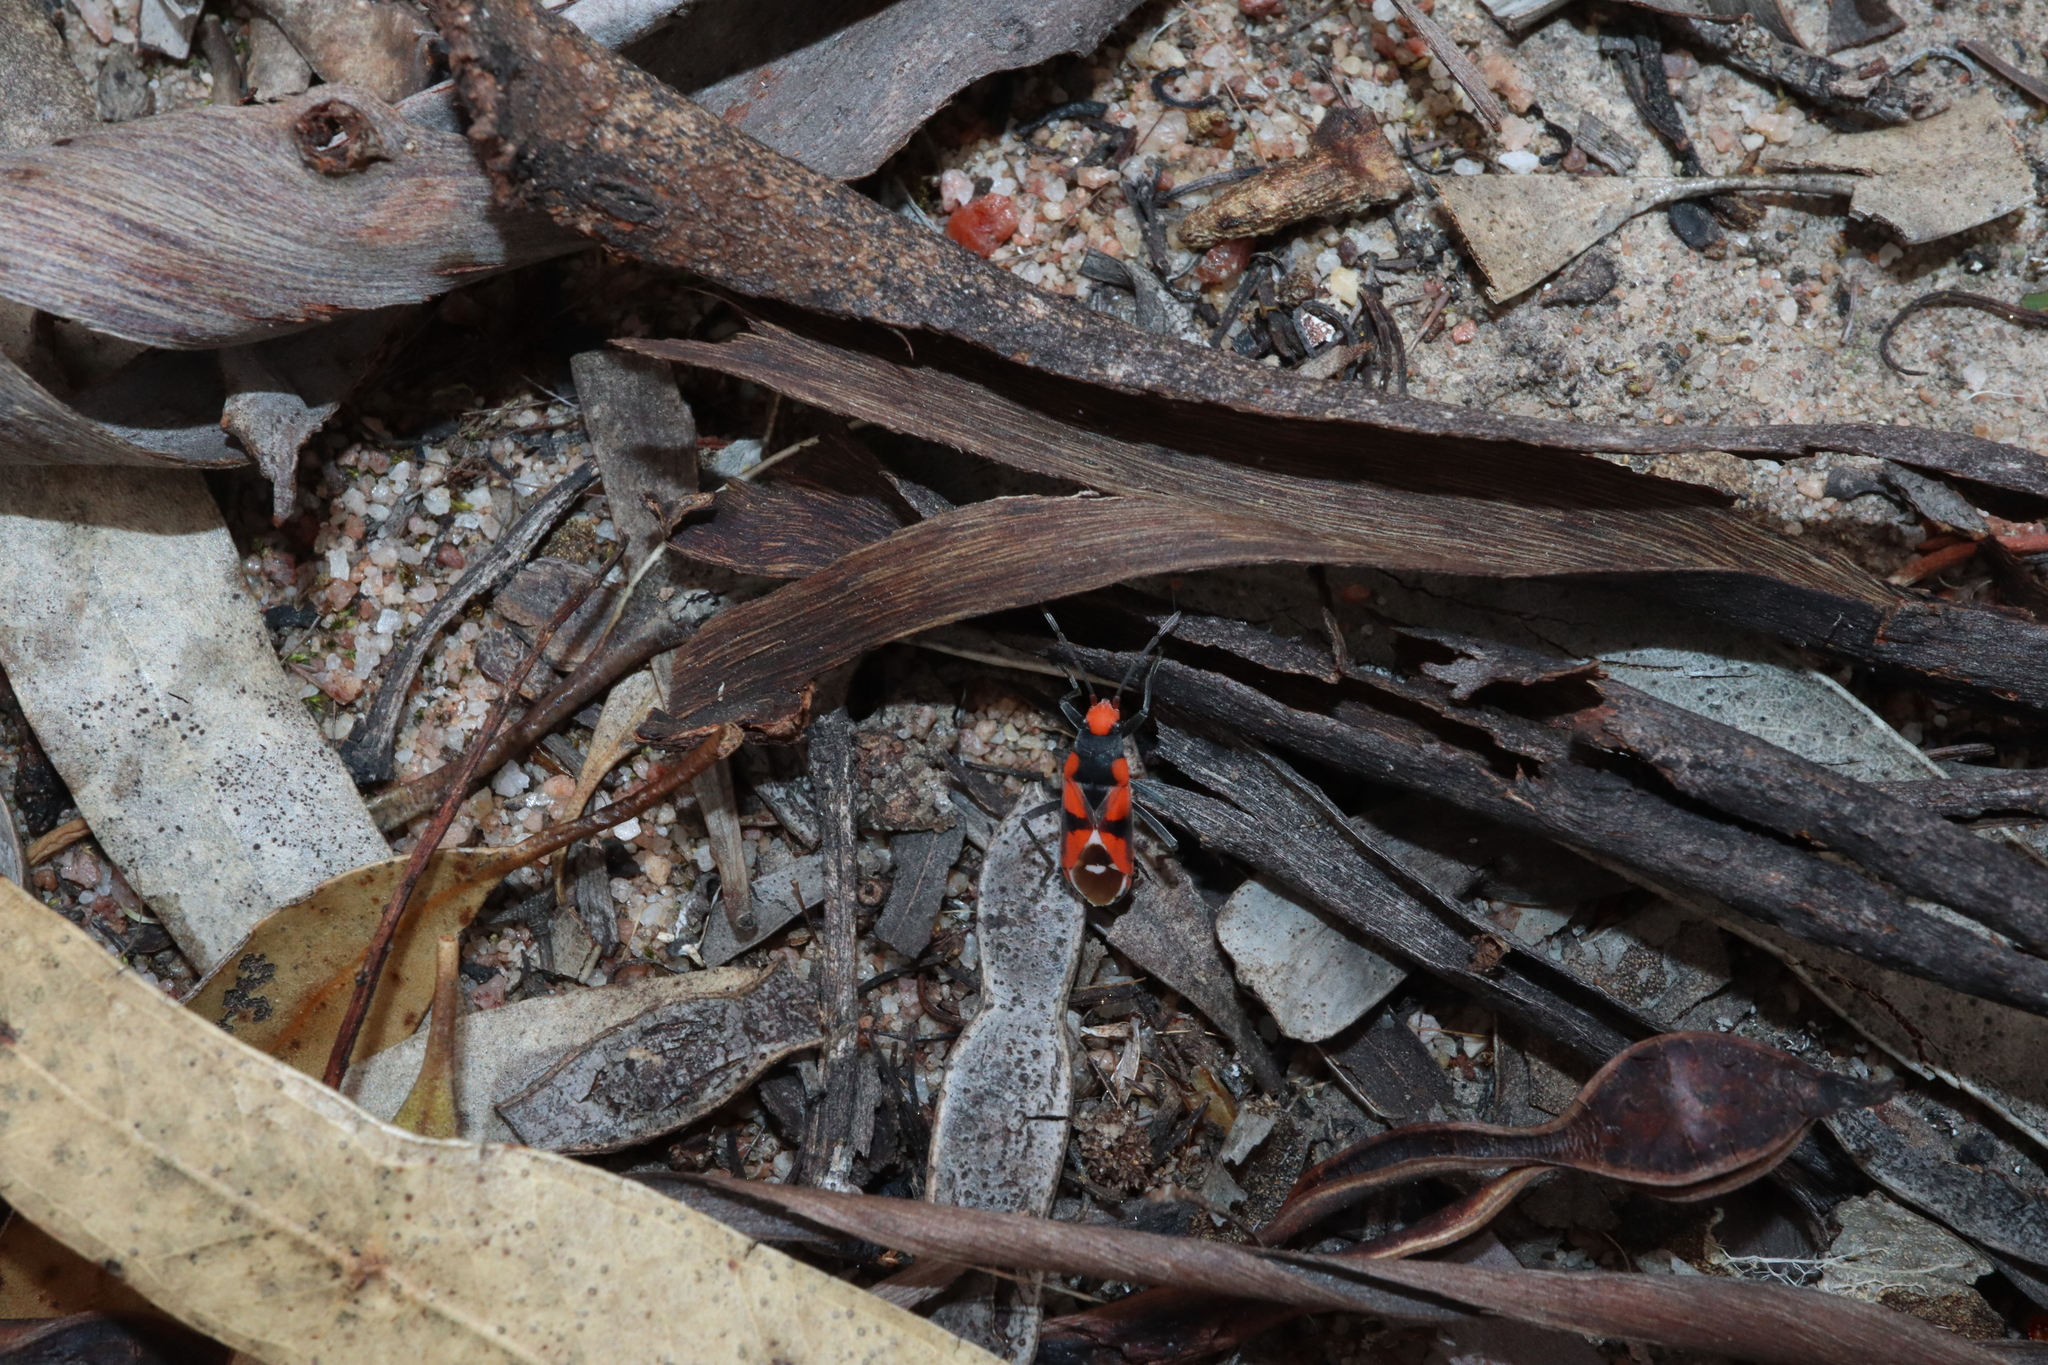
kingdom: Animalia
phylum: Arthropoda
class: Insecta
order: Hemiptera
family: Lygaeidae
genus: Melanerythrus
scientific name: Melanerythrus mactans
